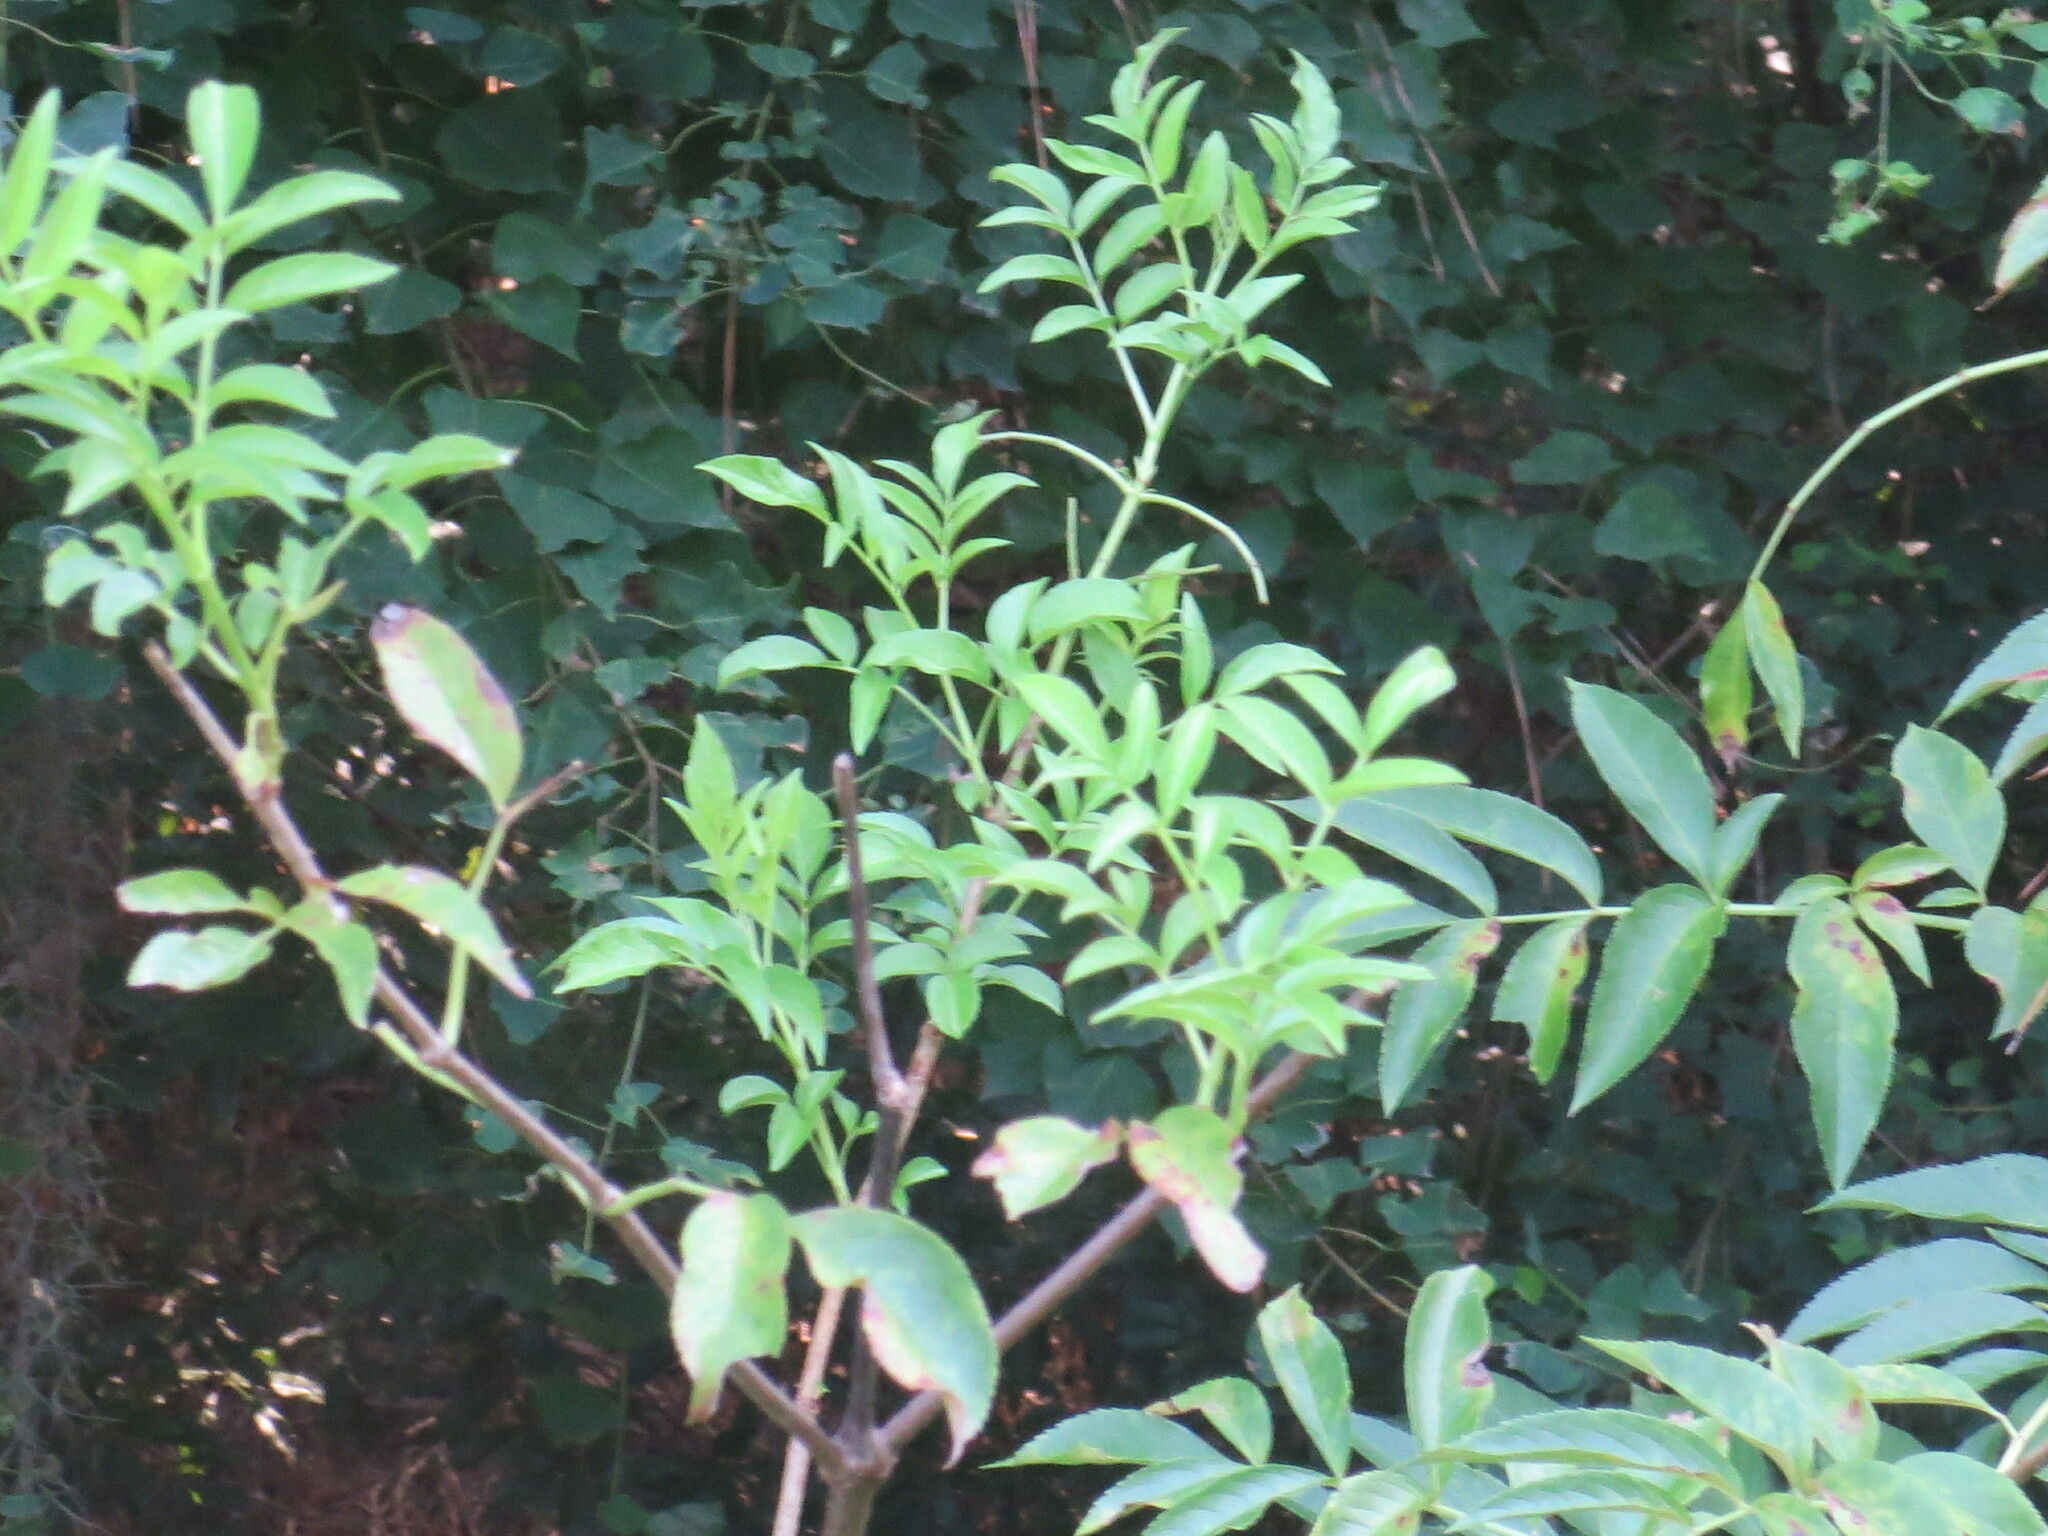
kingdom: Plantae
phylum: Tracheophyta
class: Magnoliopsida
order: Dipsacales
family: Viburnaceae
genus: Sambucus
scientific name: Sambucus canadensis
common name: American elder
